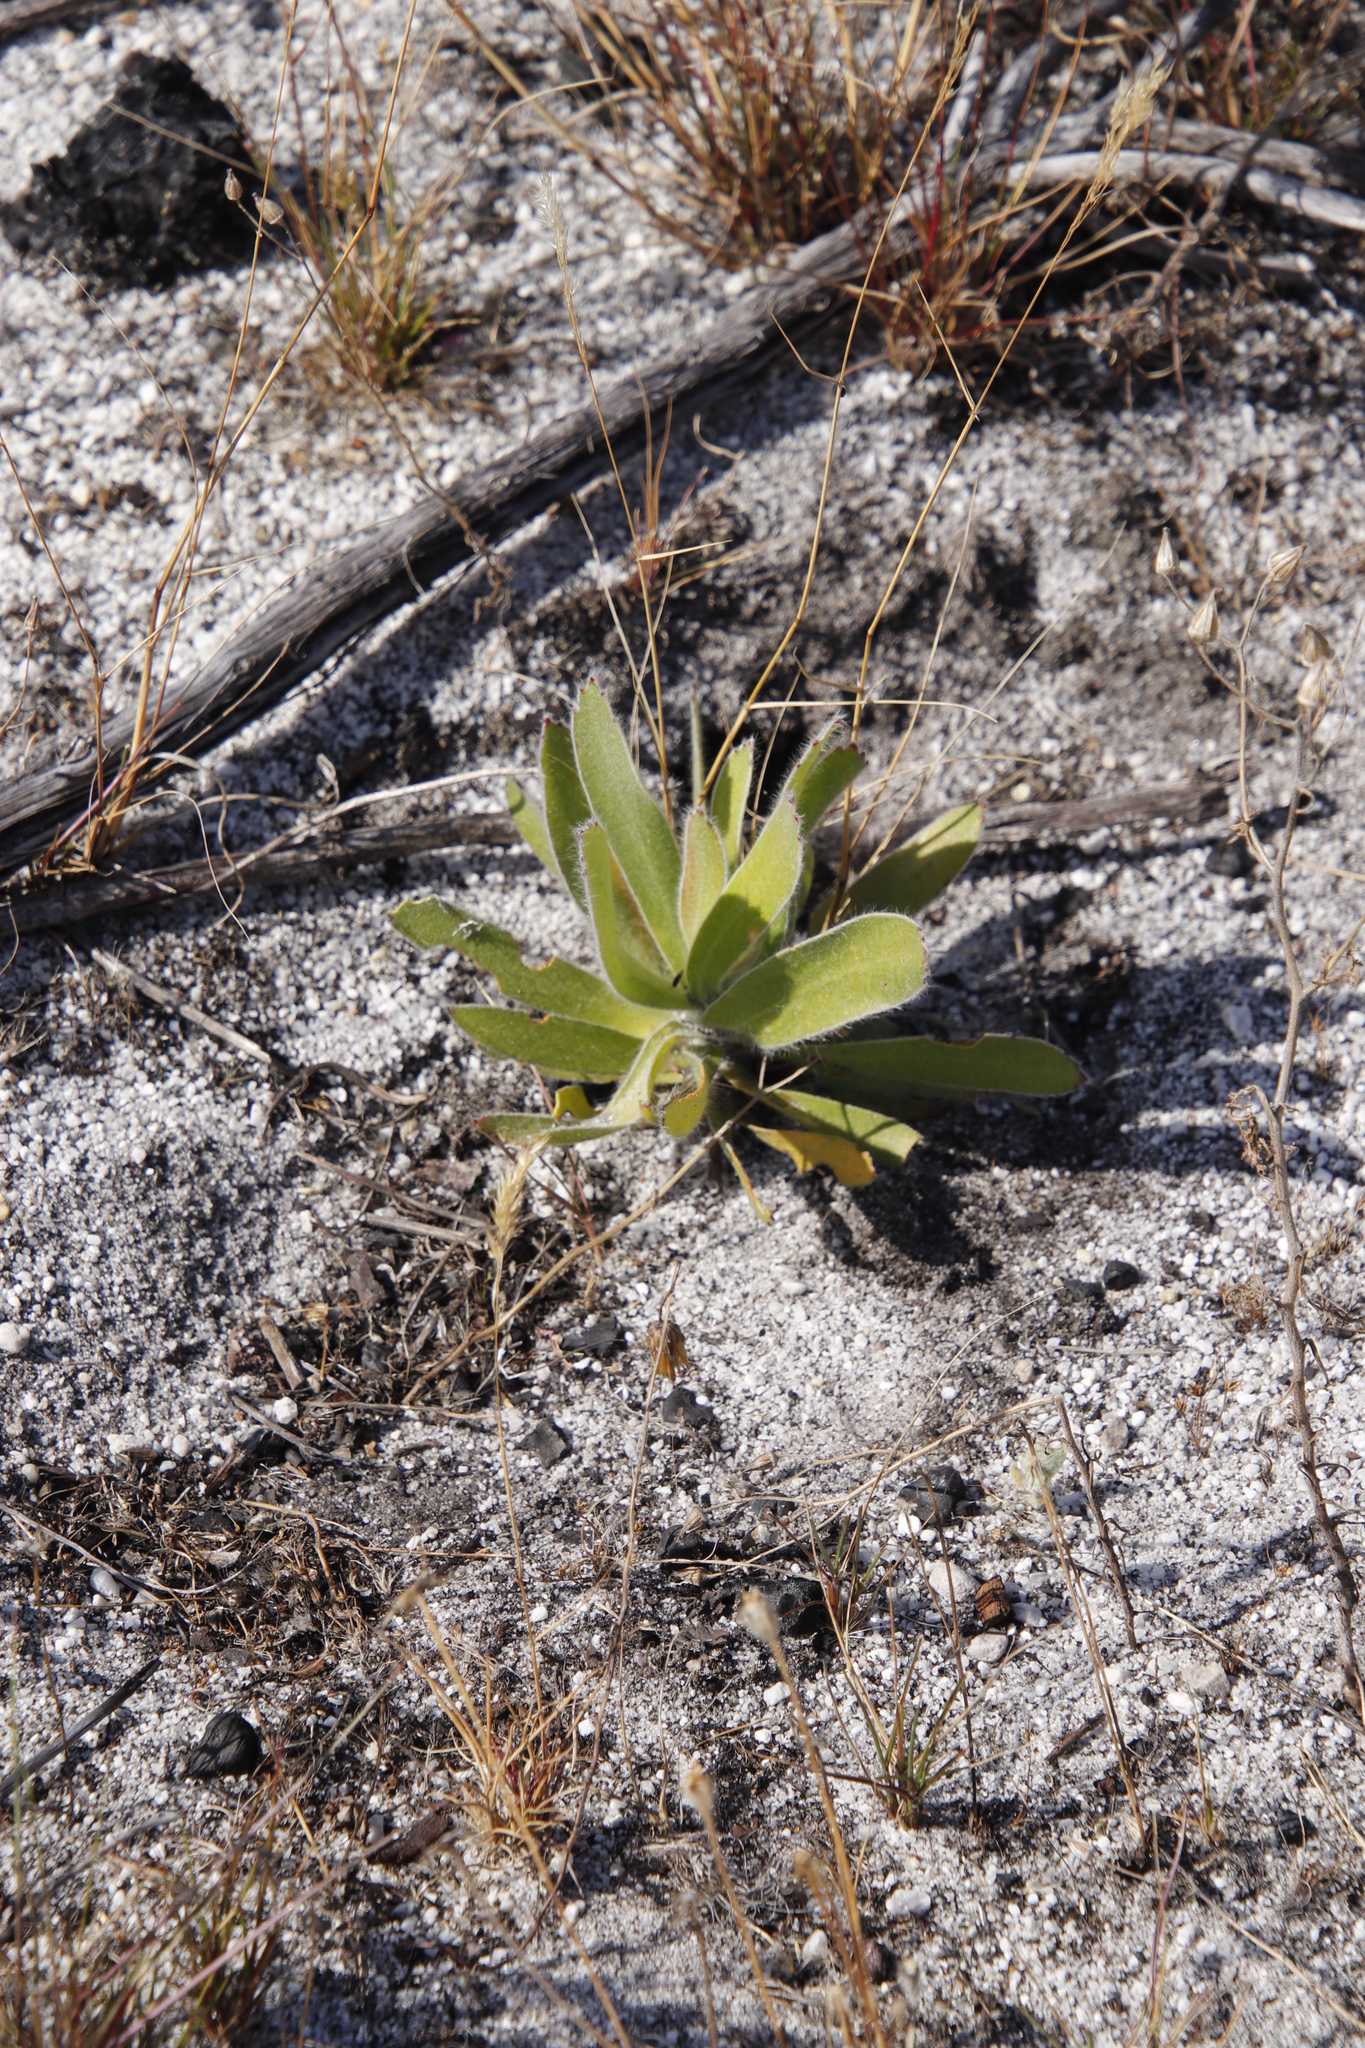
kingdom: Plantae
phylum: Tracheophyta
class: Magnoliopsida
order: Proteales
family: Proteaceae
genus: Leucospermum
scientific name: Leucospermum conocarpodendron
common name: Tree pincushion
